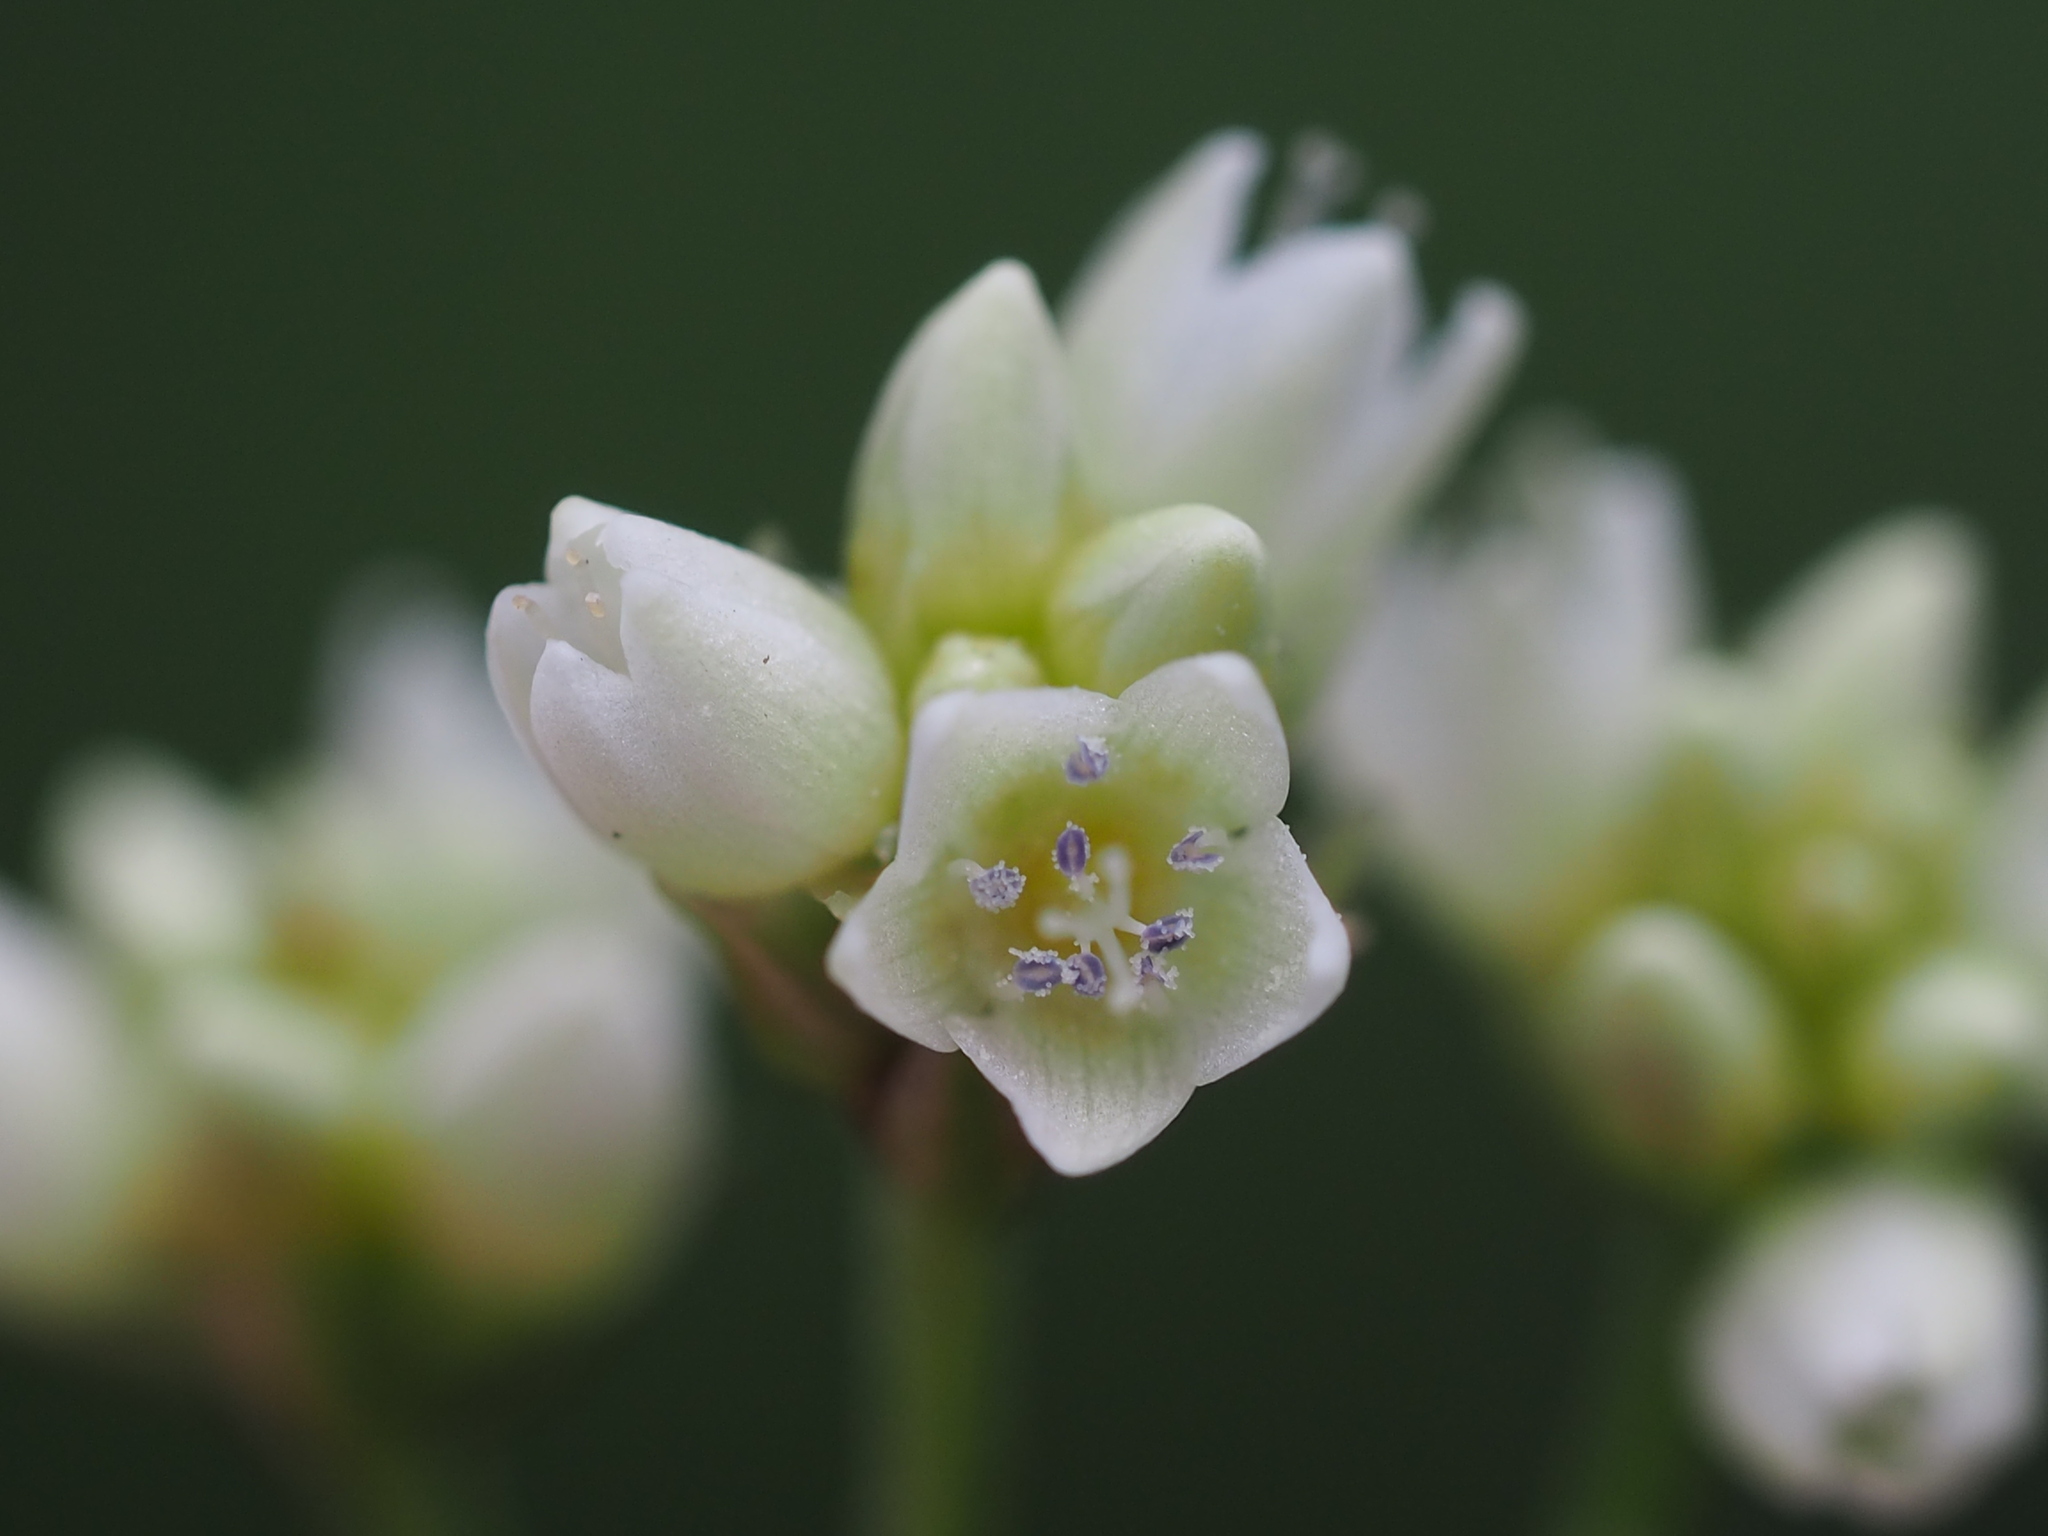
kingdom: Plantae
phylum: Tracheophyta
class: Magnoliopsida
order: Caryophyllales
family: Polygonaceae
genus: Persicaria
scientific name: Persicaria chinensis
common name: Chinese knotweed
